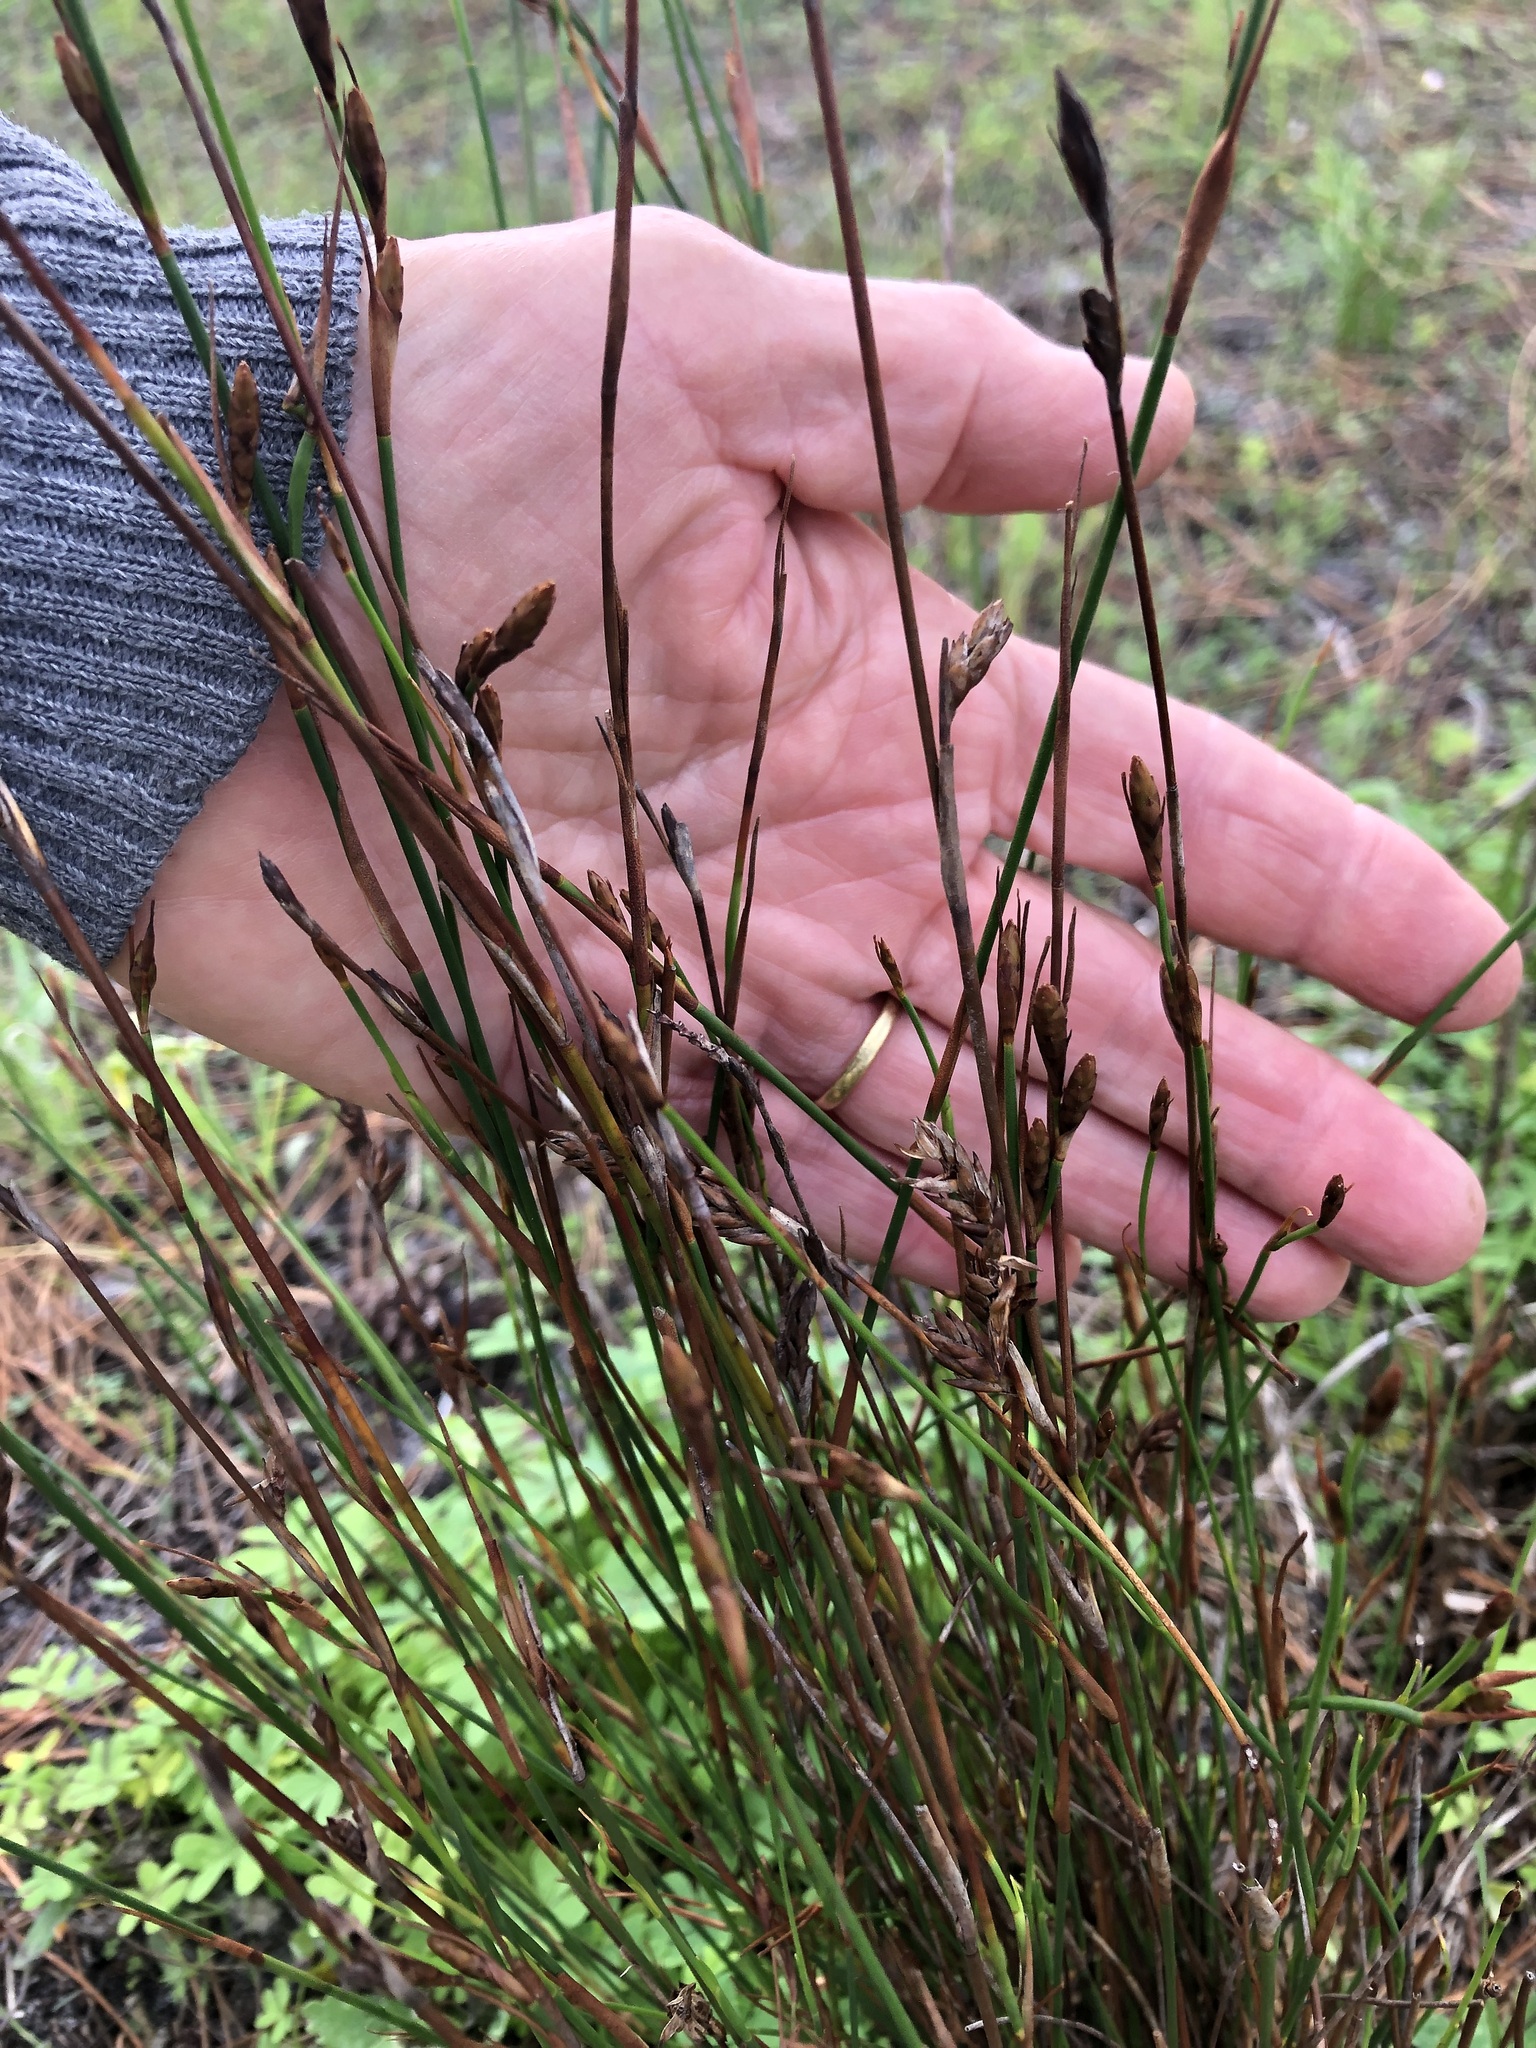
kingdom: Plantae
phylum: Tracheophyta
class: Liliopsida
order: Poales
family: Restionaceae
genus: Restio
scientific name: Restio quinquefarius
